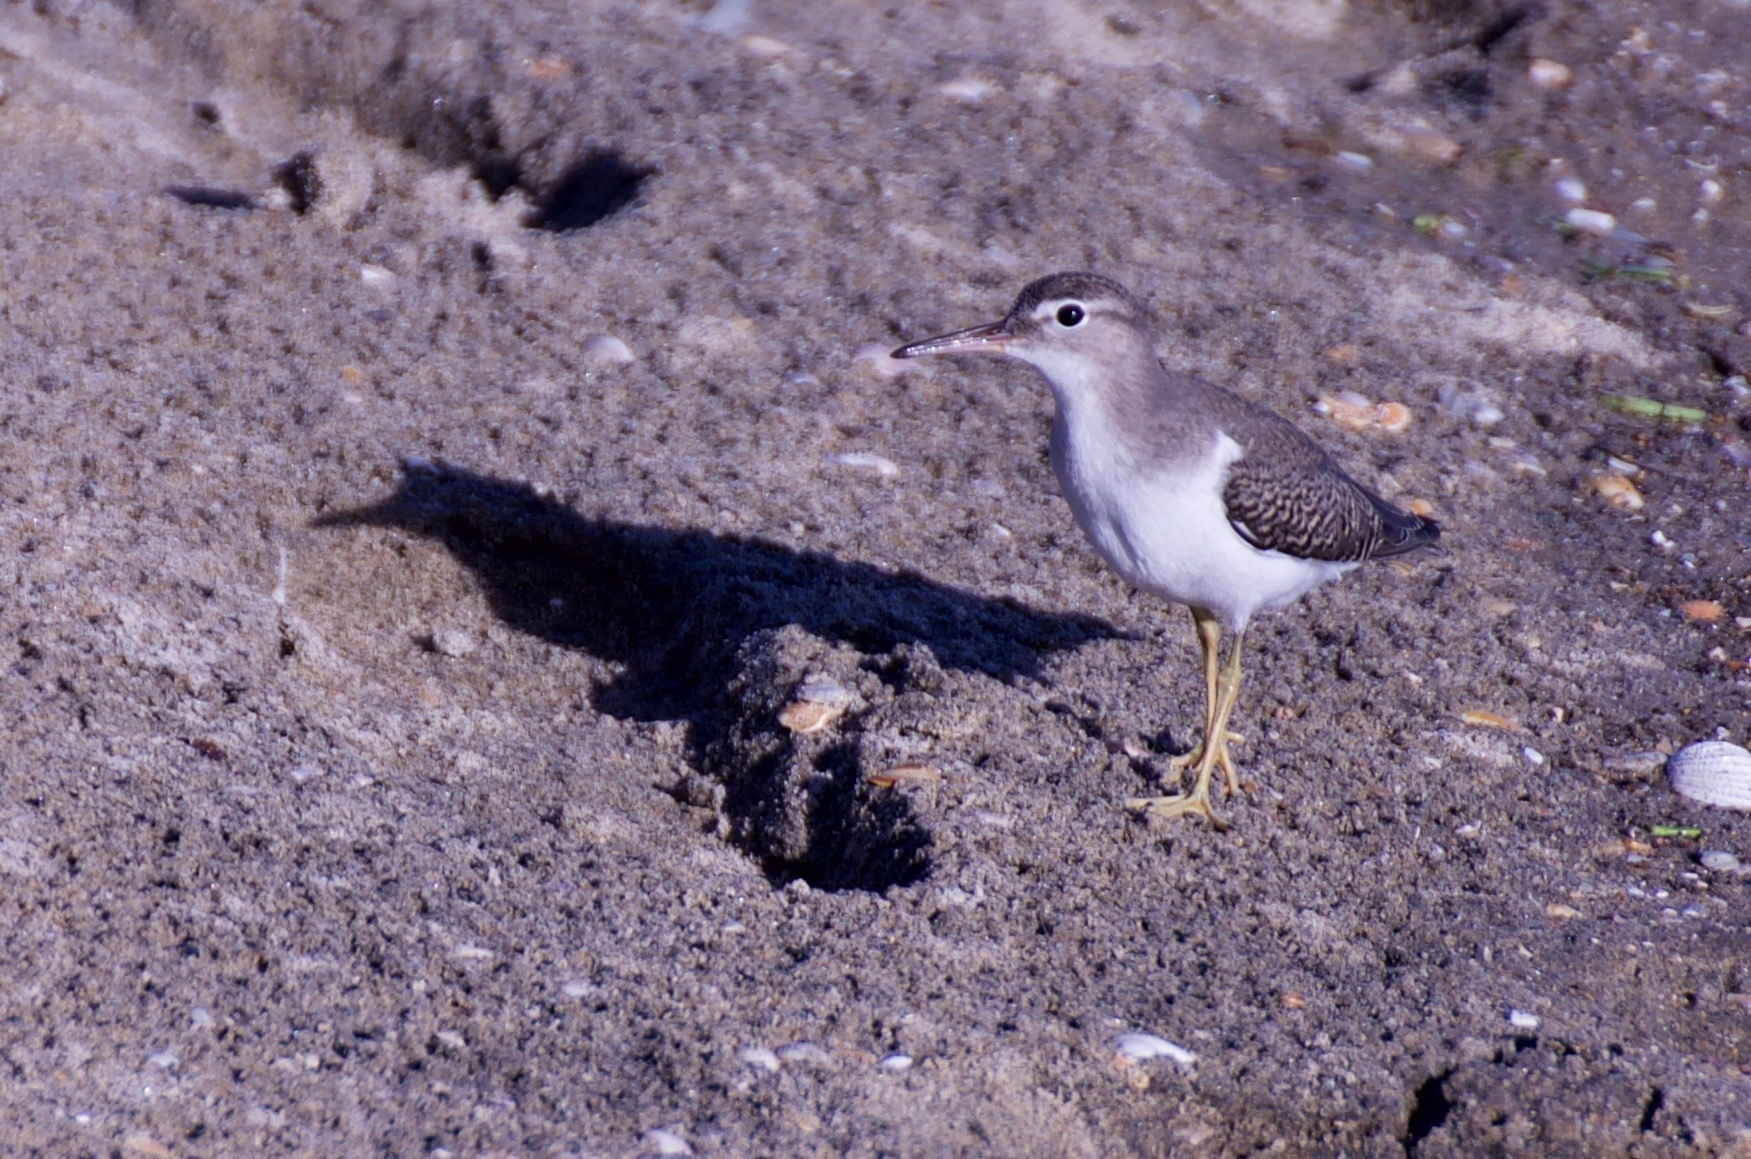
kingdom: Animalia
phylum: Chordata
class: Aves
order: Charadriiformes
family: Scolopacidae
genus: Actitis
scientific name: Actitis macularius
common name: Spotted sandpiper
